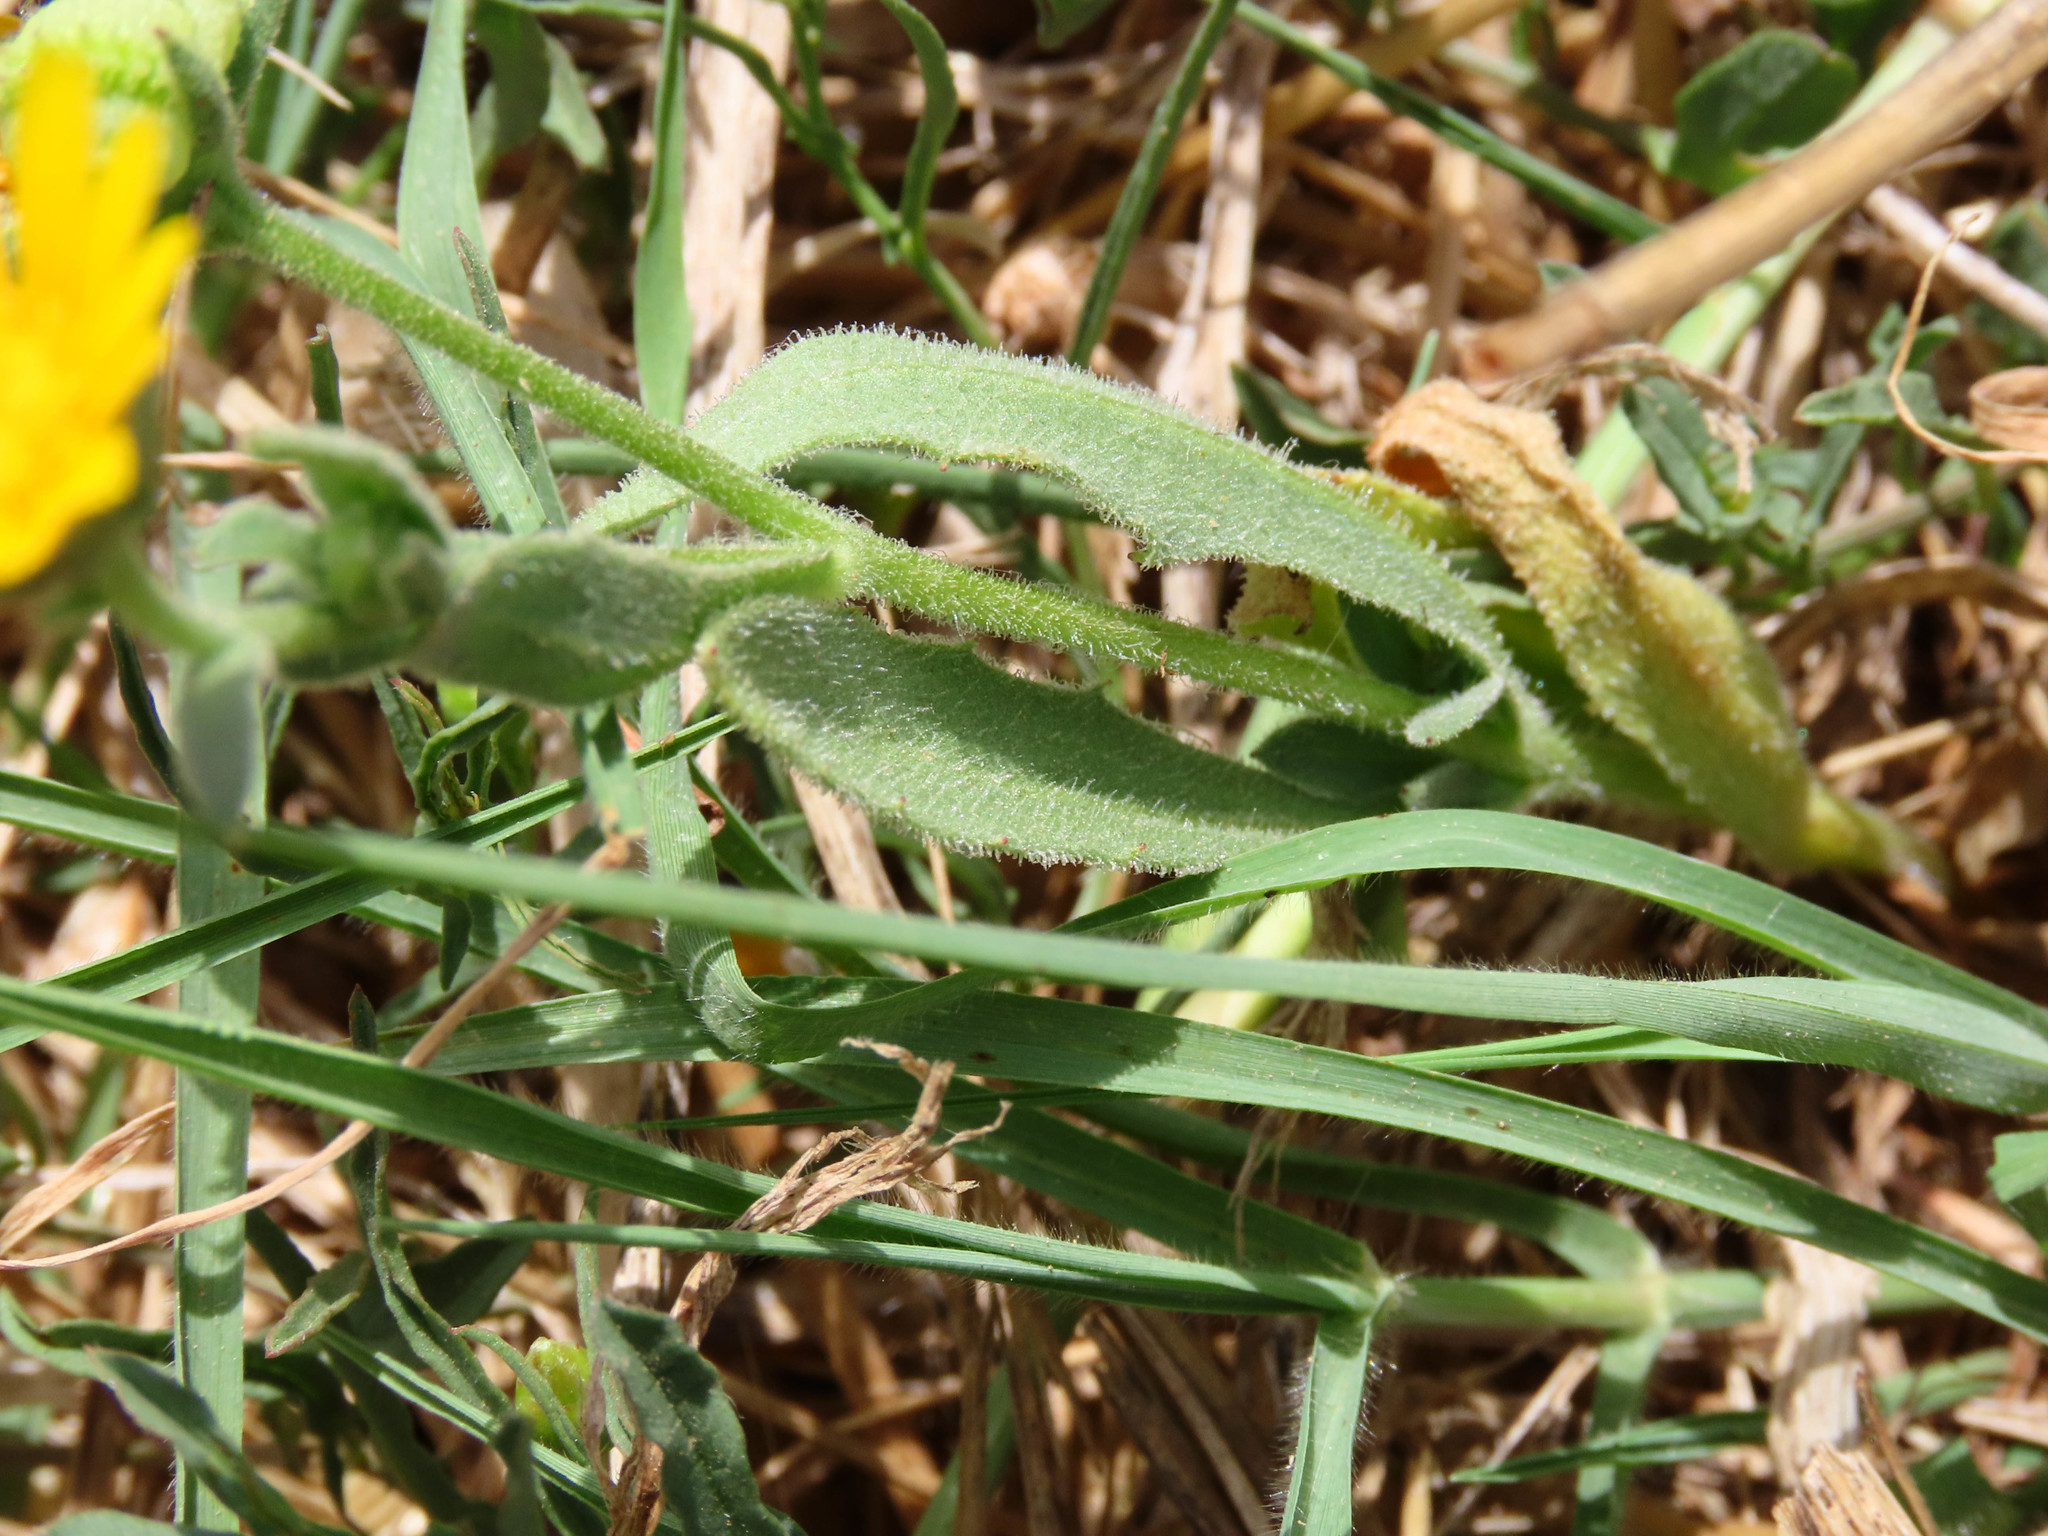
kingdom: Plantae
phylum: Tracheophyta
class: Magnoliopsida
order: Asterales
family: Asteraceae
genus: Calendula
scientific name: Calendula arvensis
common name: Field marigold
